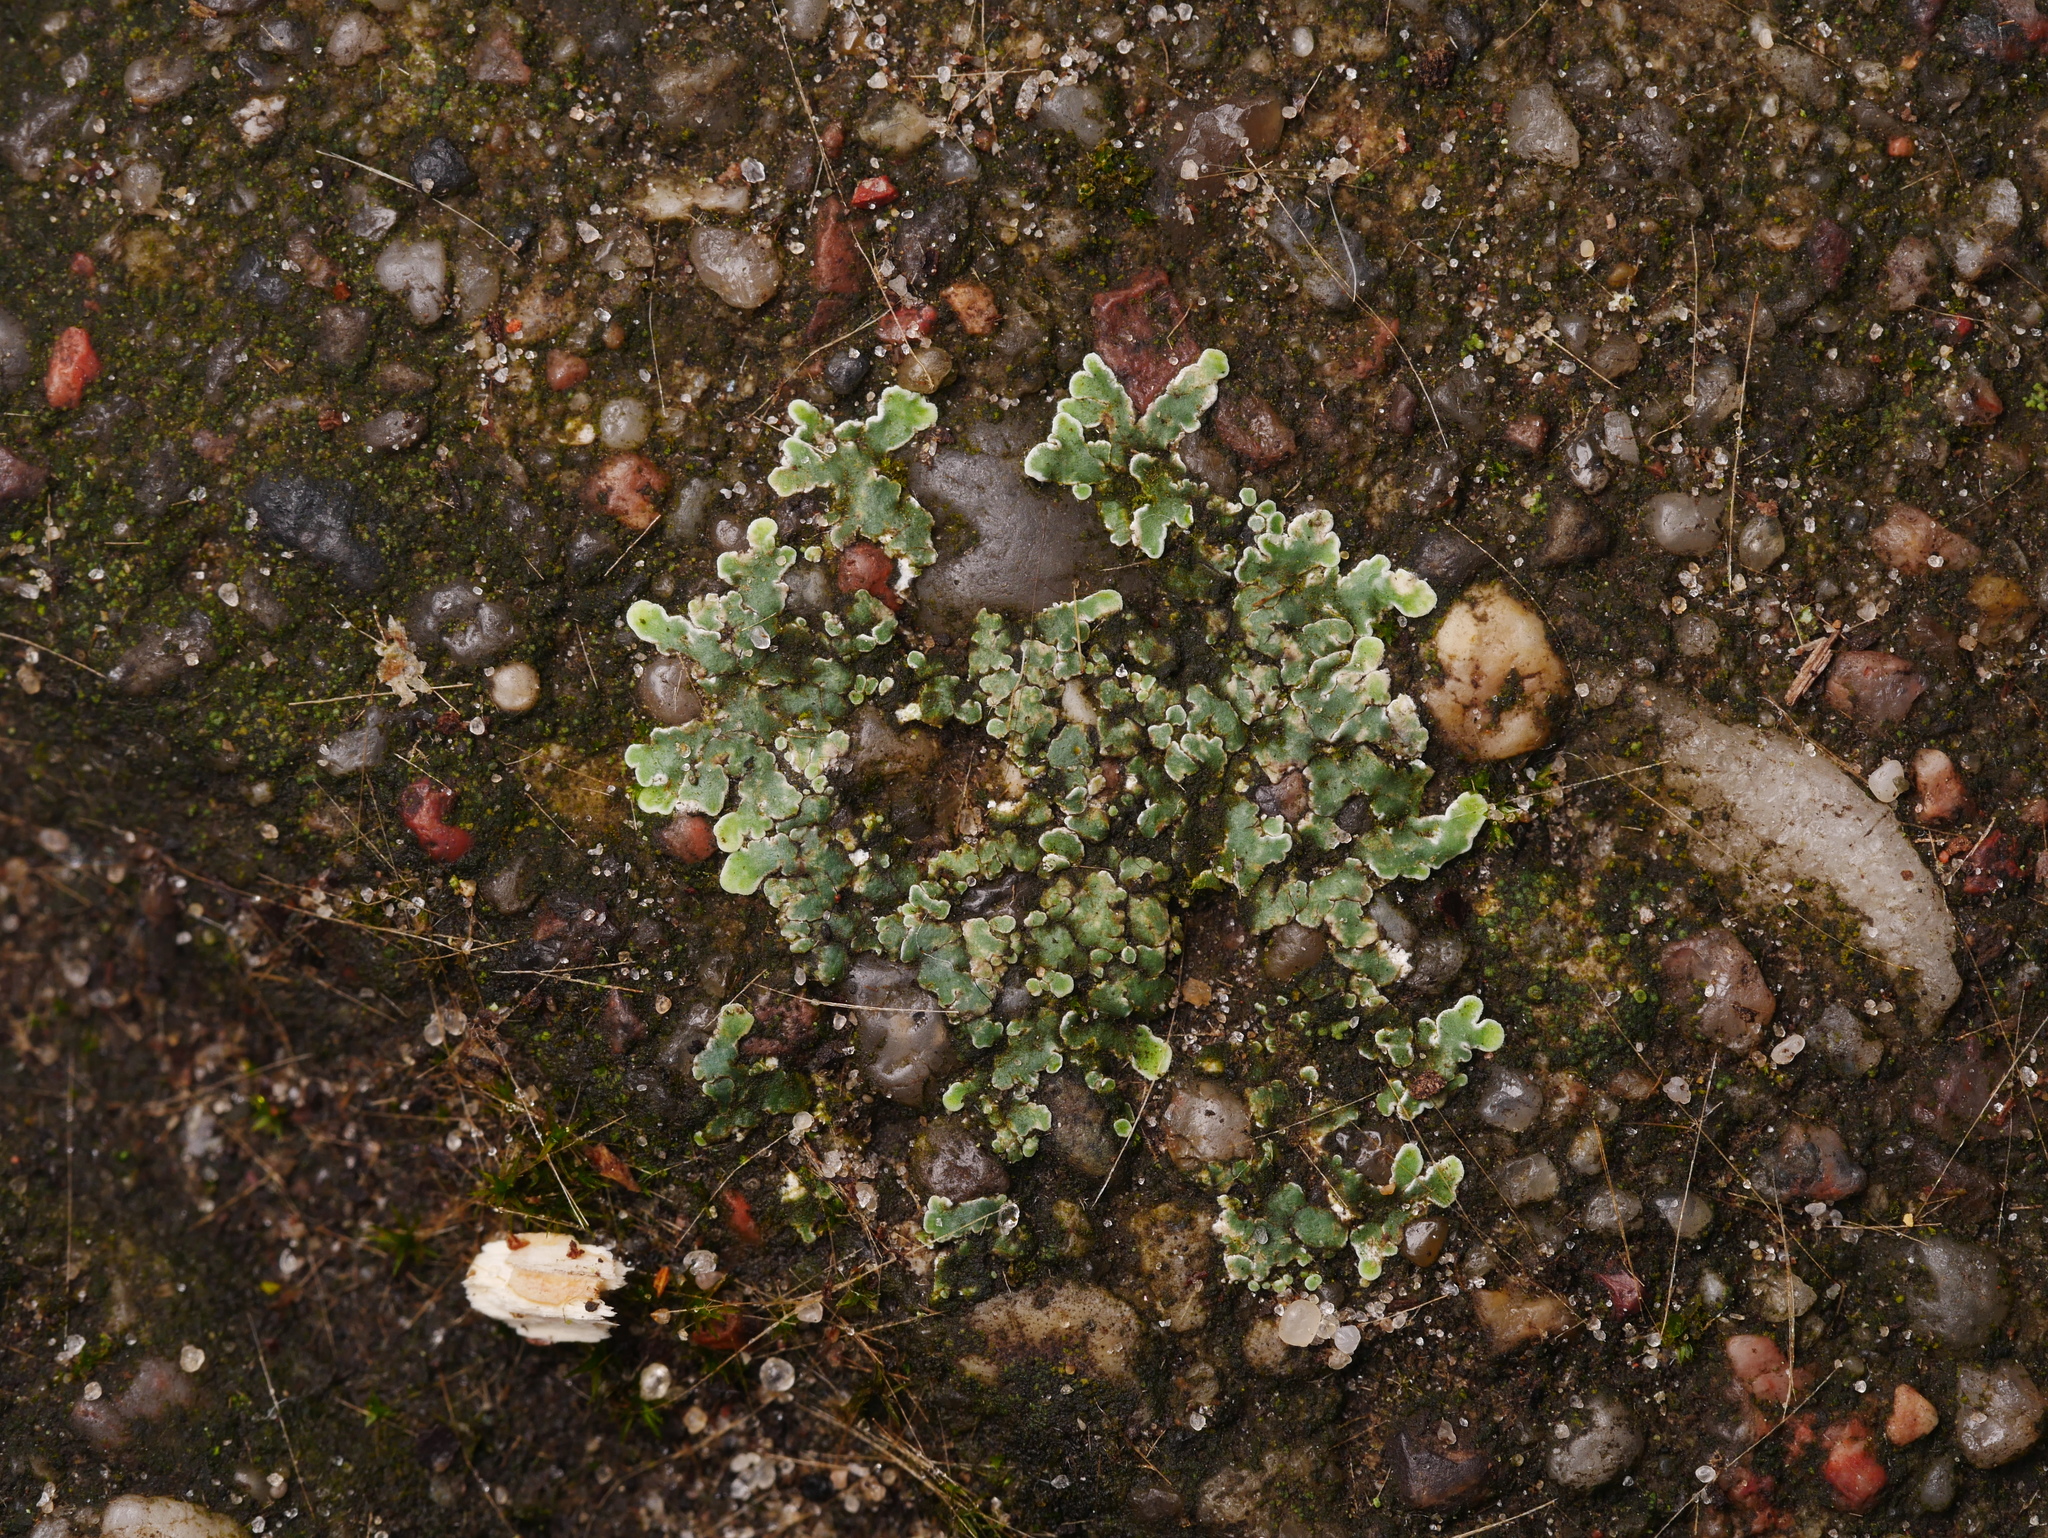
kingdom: Fungi
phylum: Ascomycota
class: Lecanoromycetes
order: Lecanorales
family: Lecanoraceae
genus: Protoparmeliopsis
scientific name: Protoparmeliopsis muralis
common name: Stonewall rim lichen
